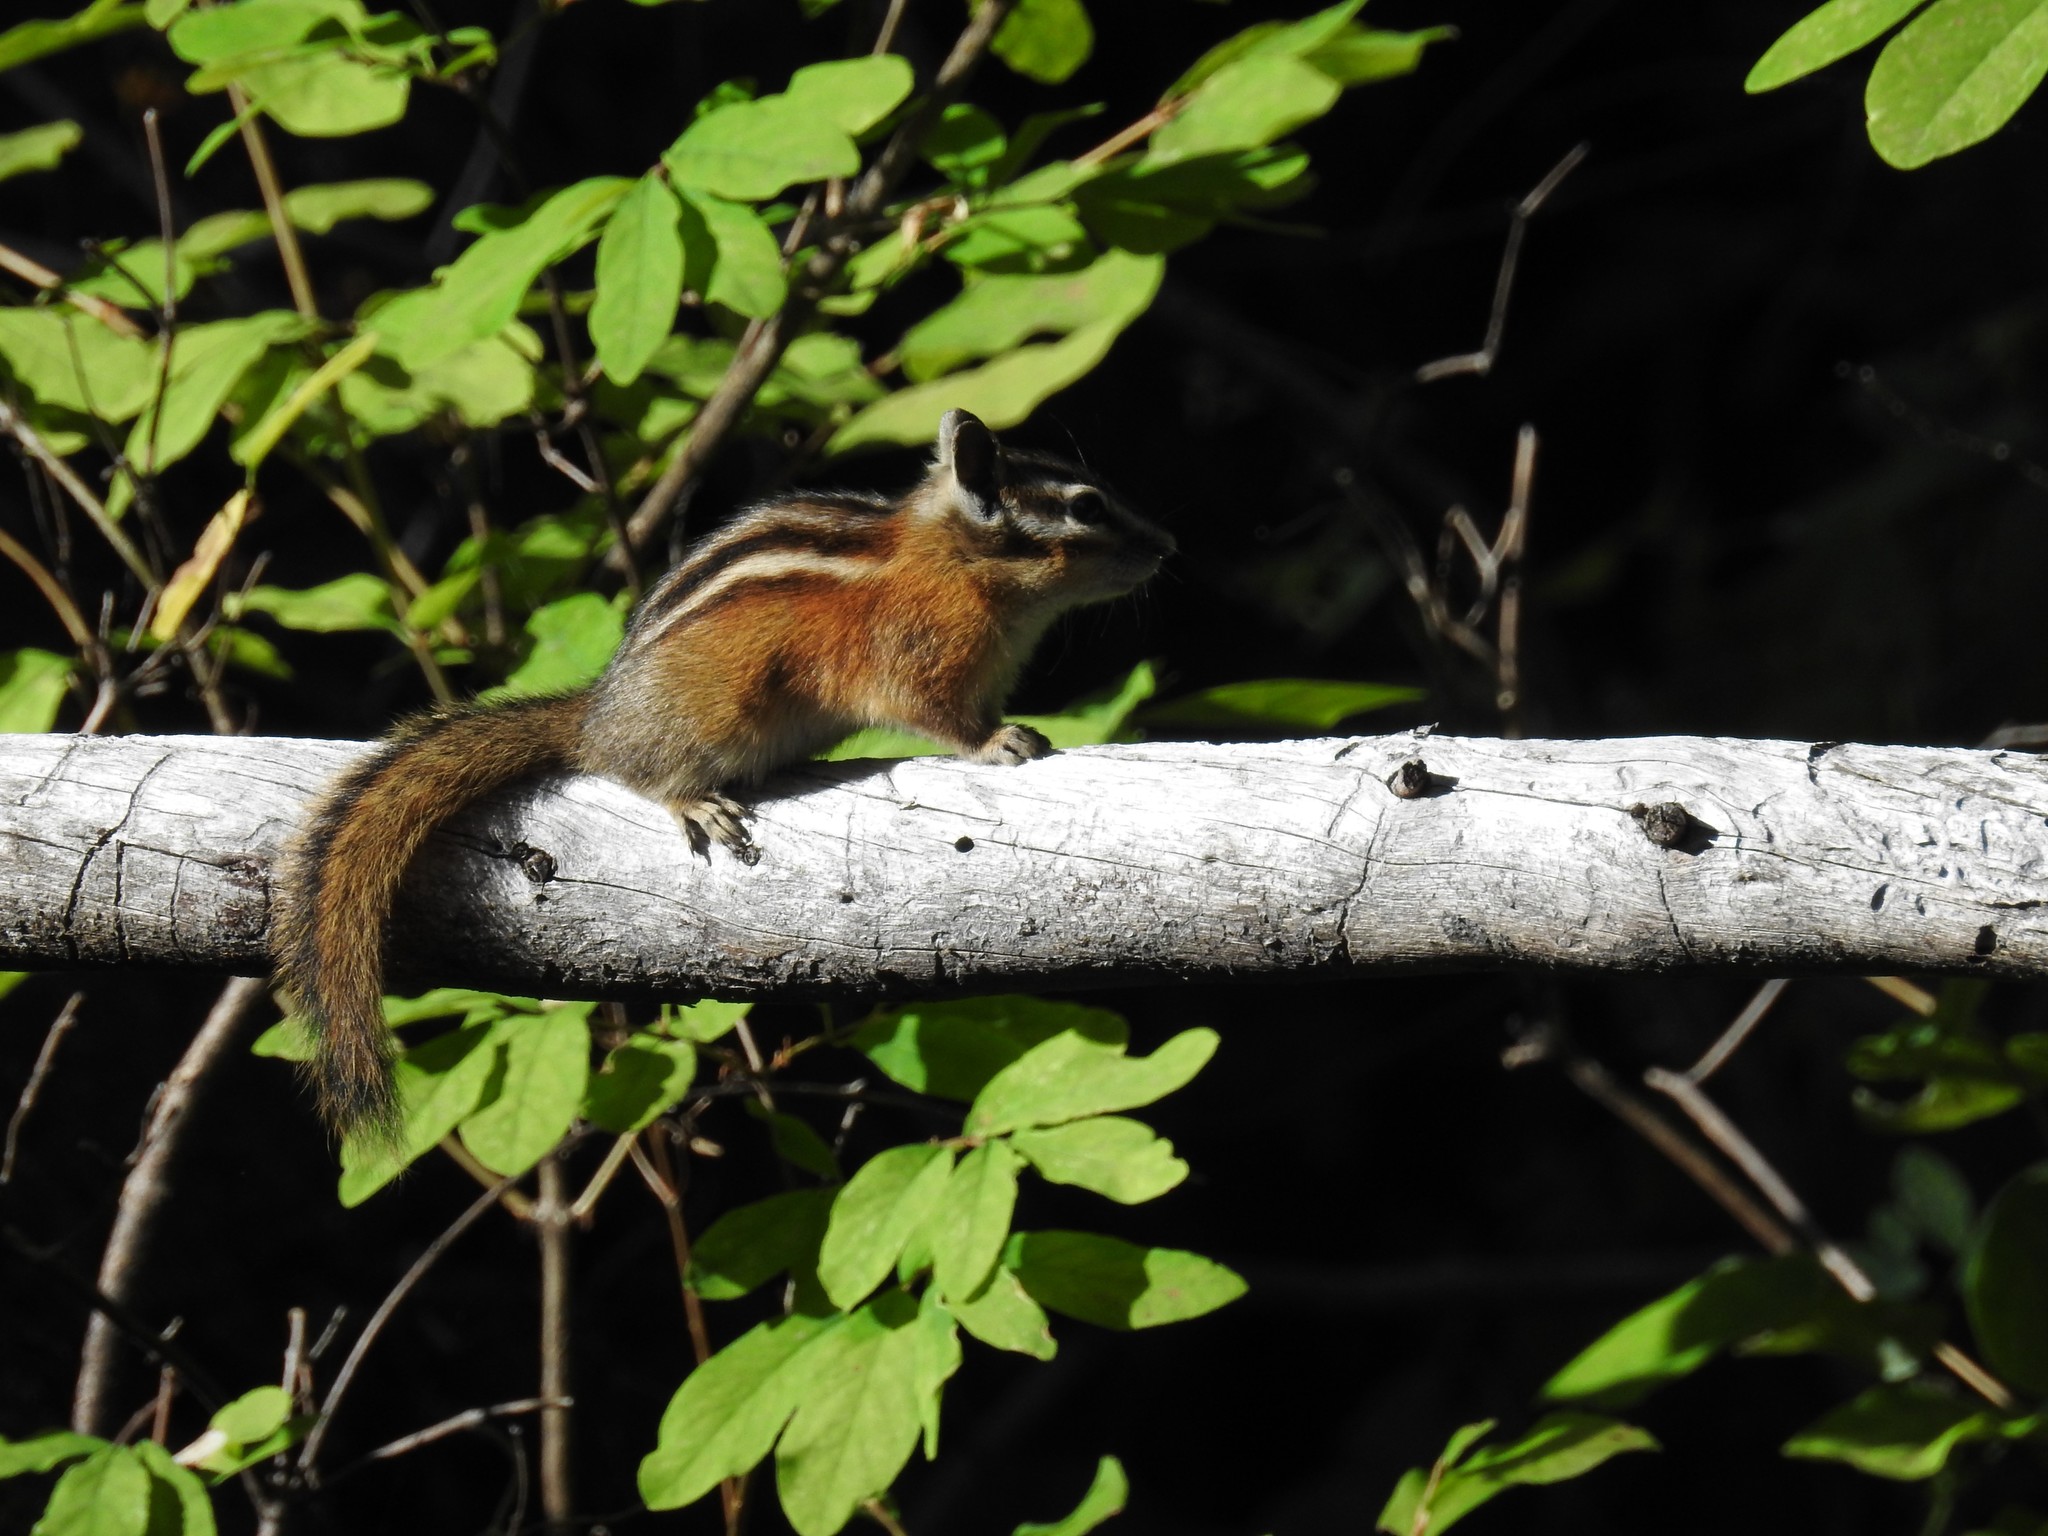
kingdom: Animalia
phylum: Chordata
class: Mammalia
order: Rodentia
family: Sciuridae
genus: Tamias
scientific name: Tamias amoenus
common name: Yellow-pine chipmunk
